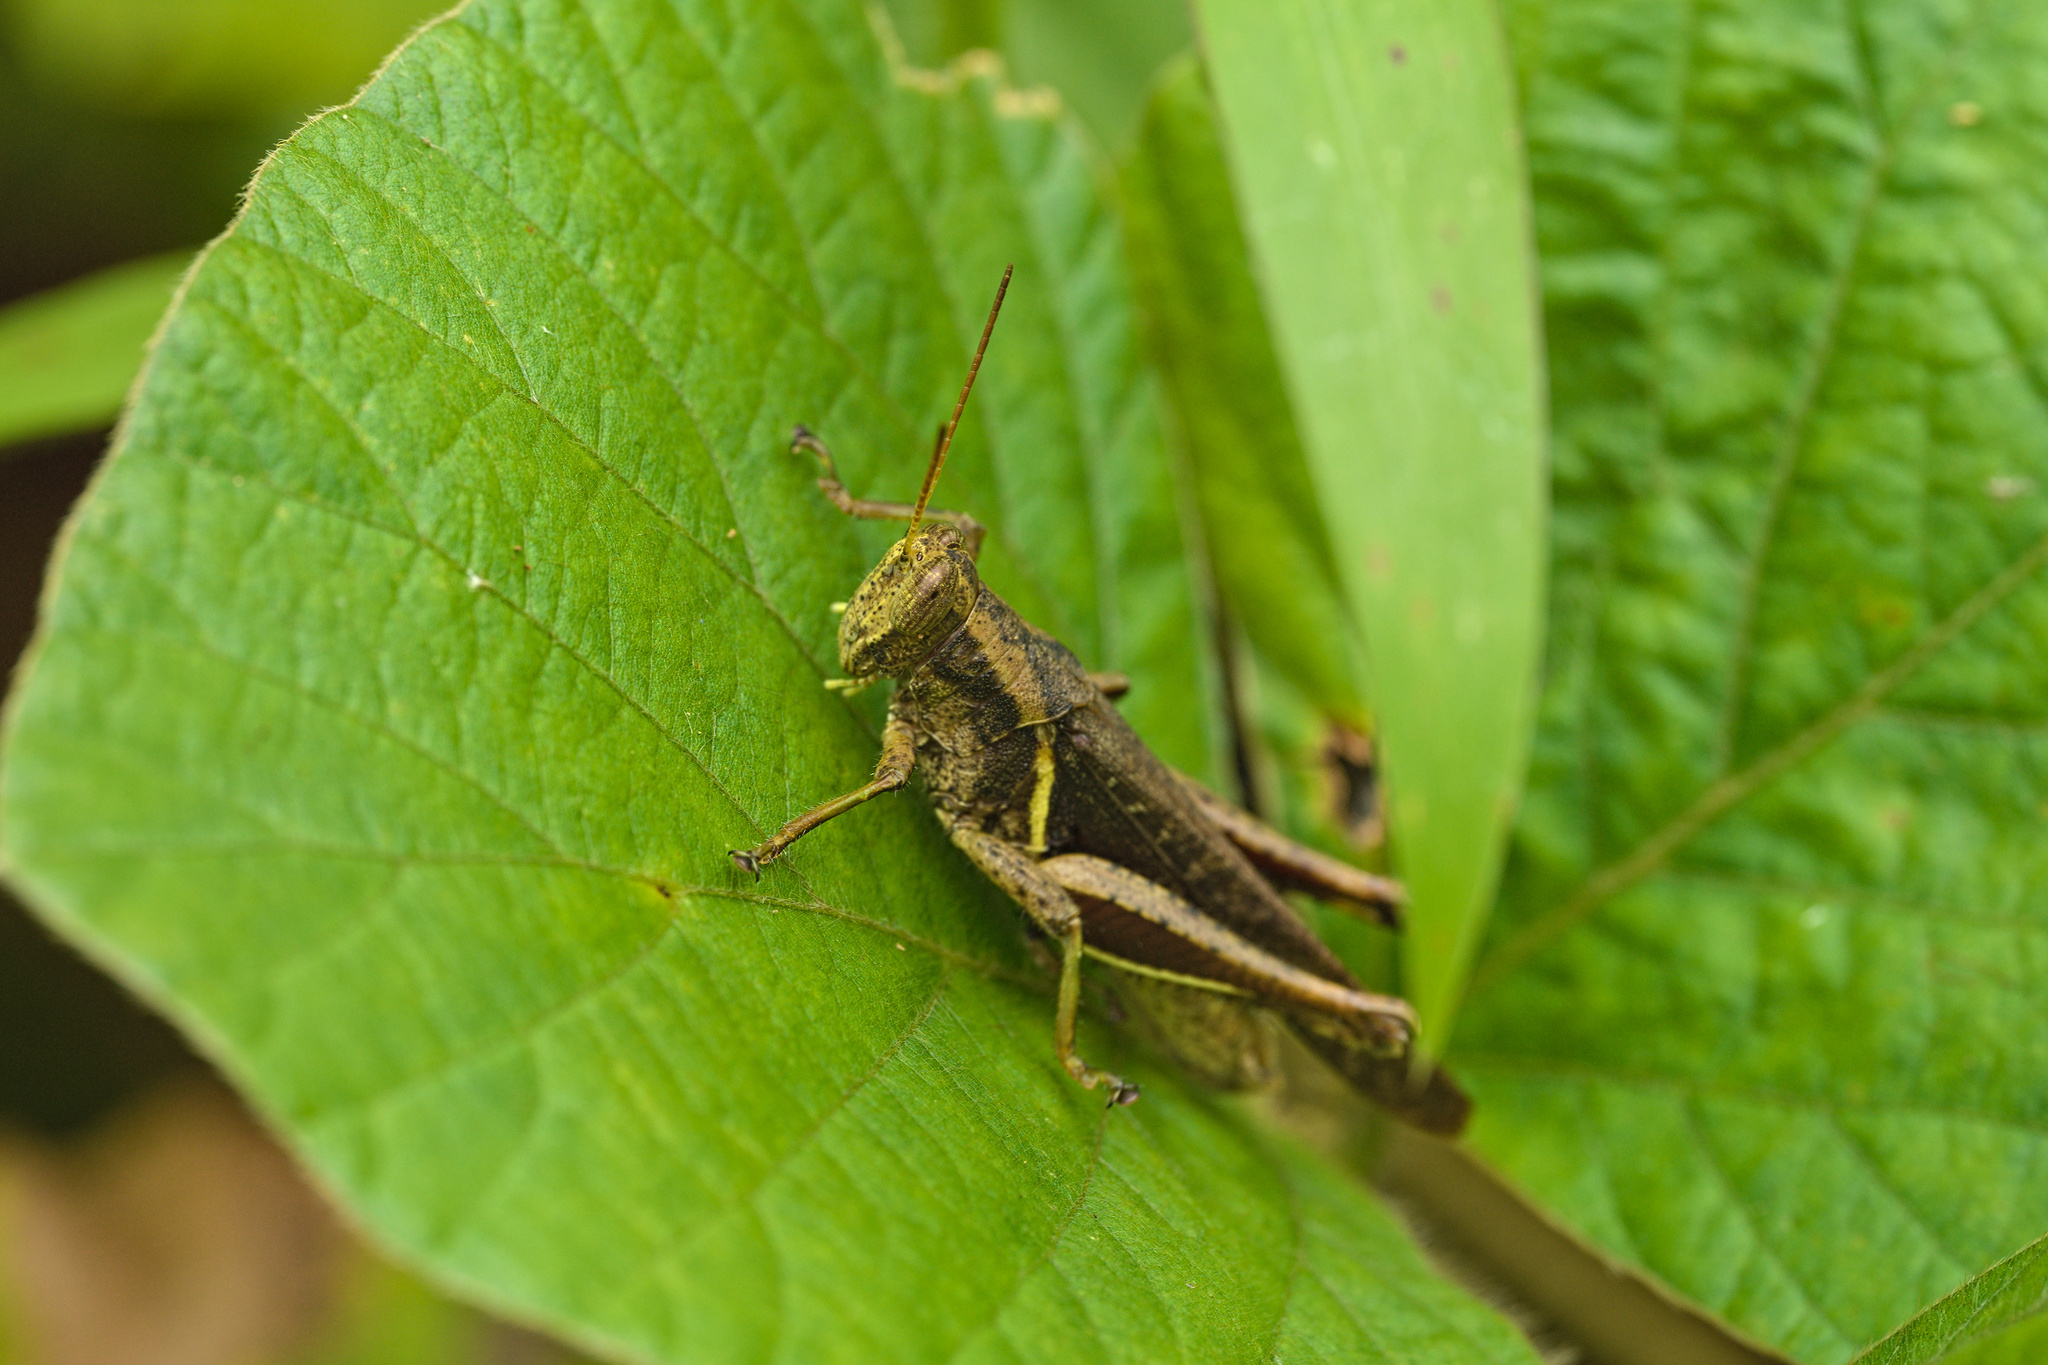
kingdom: Animalia
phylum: Arthropoda
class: Insecta
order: Orthoptera
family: Acrididae
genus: Abracris
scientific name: Abracris flavolineata
